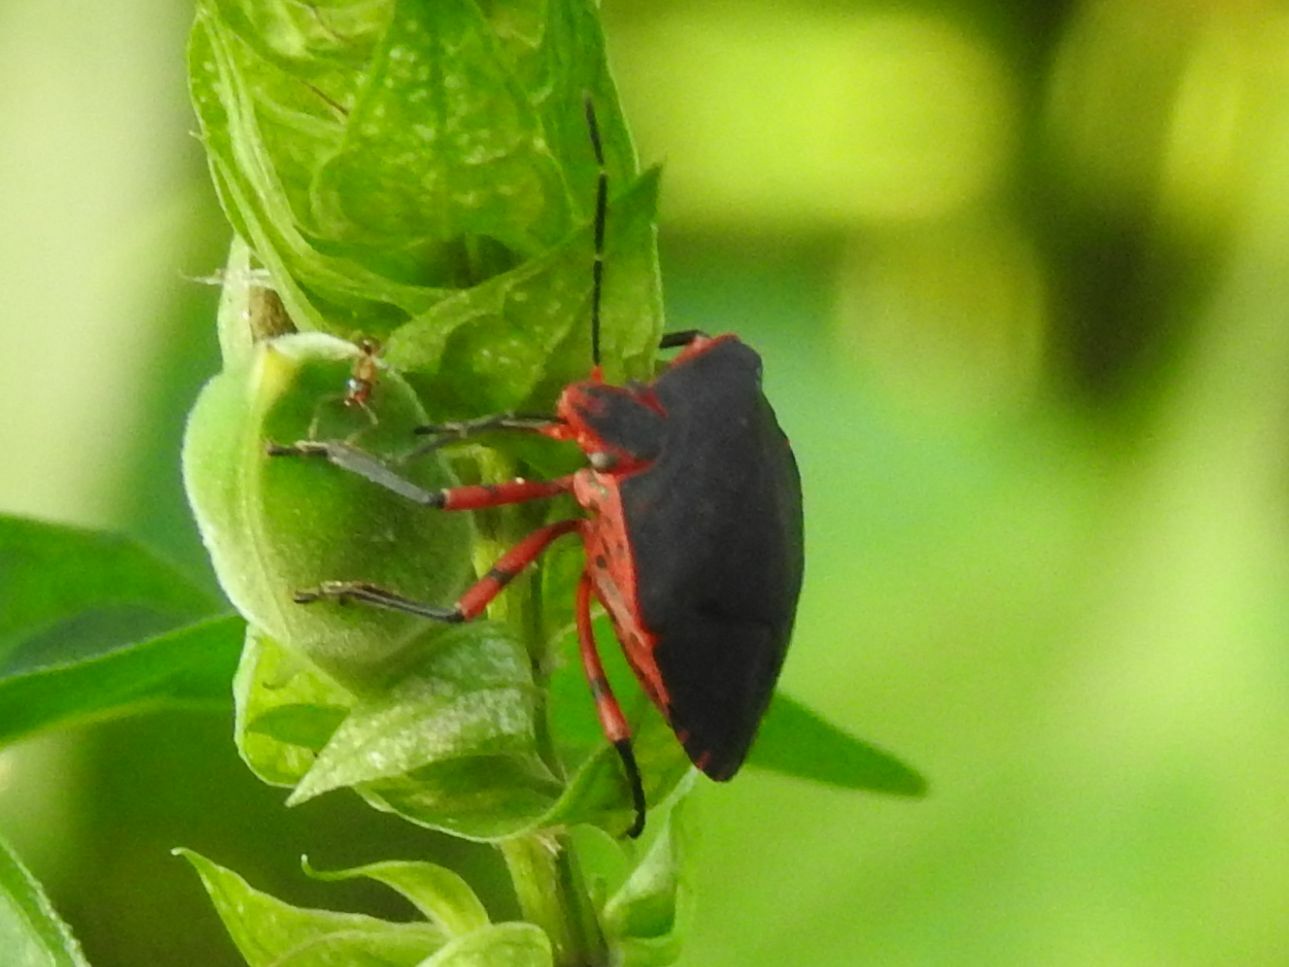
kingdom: Animalia
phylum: Arthropoda
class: Insecta
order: Hemiptera
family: Pentatomidae
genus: Caura
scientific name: Caura rufiventris
